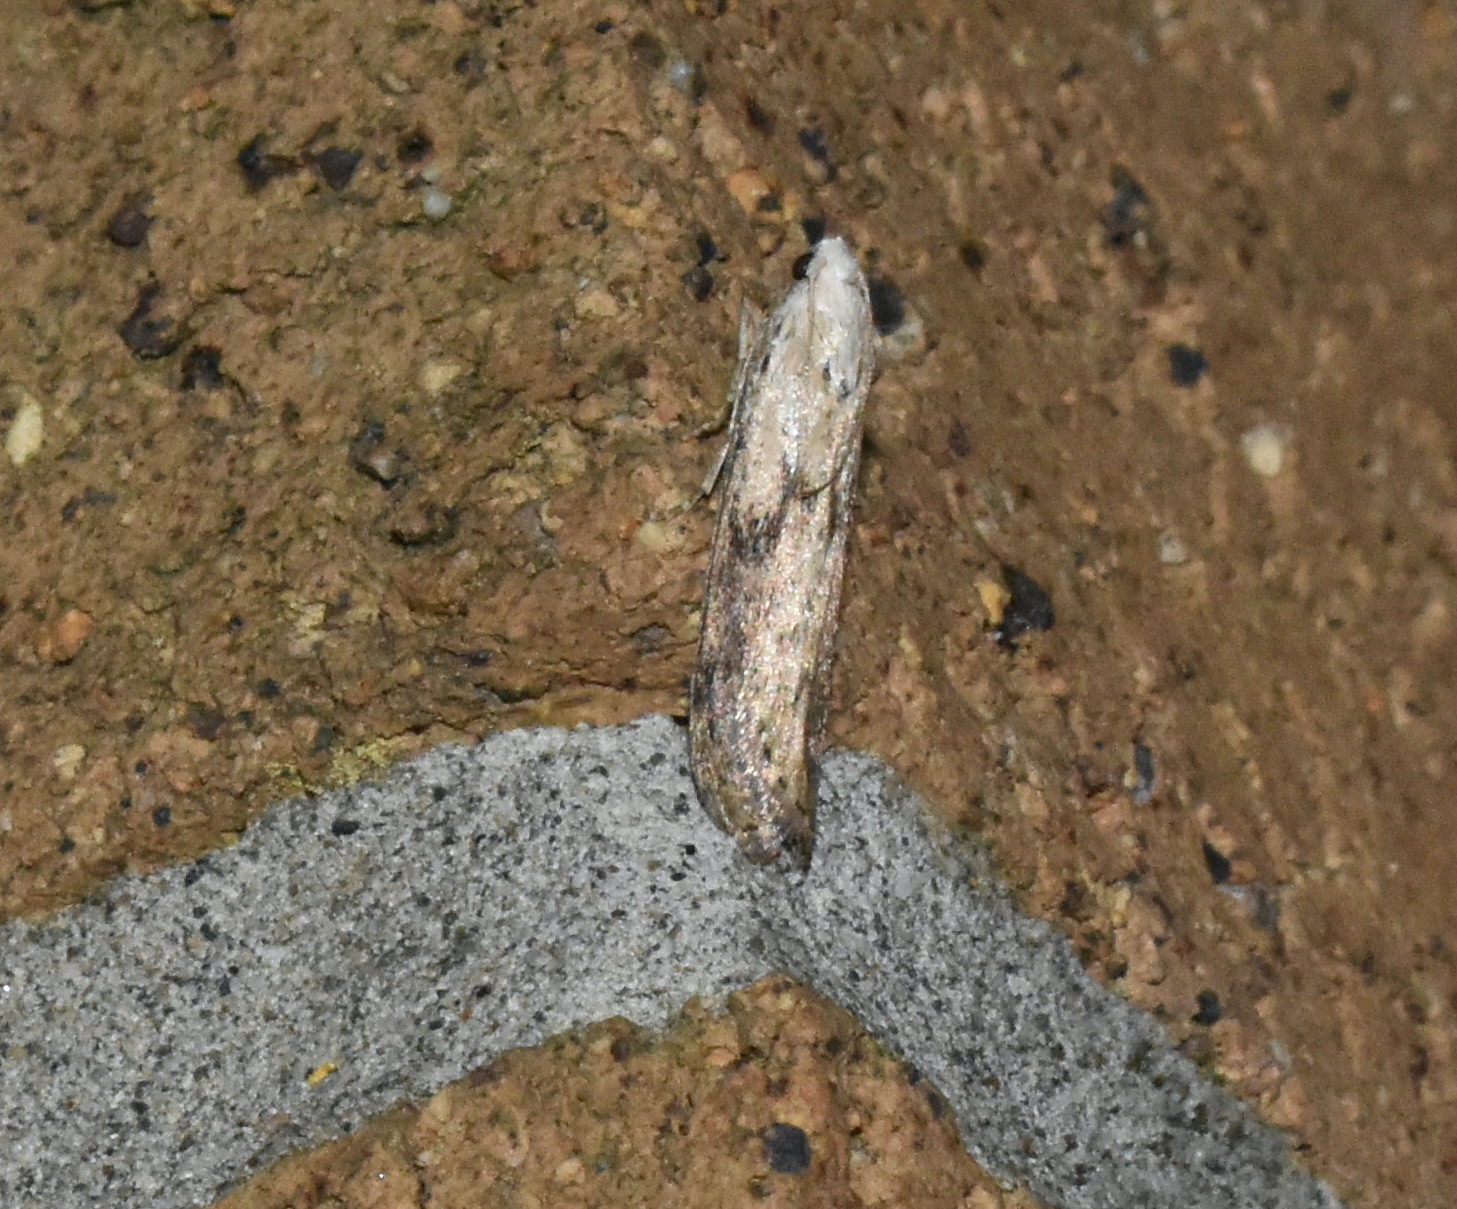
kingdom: Animalia
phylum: Arthropoda
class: Insecta
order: Lepidoptera
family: Pyralidae
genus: Aphomia
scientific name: Aphomia sociella
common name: Bee moth
